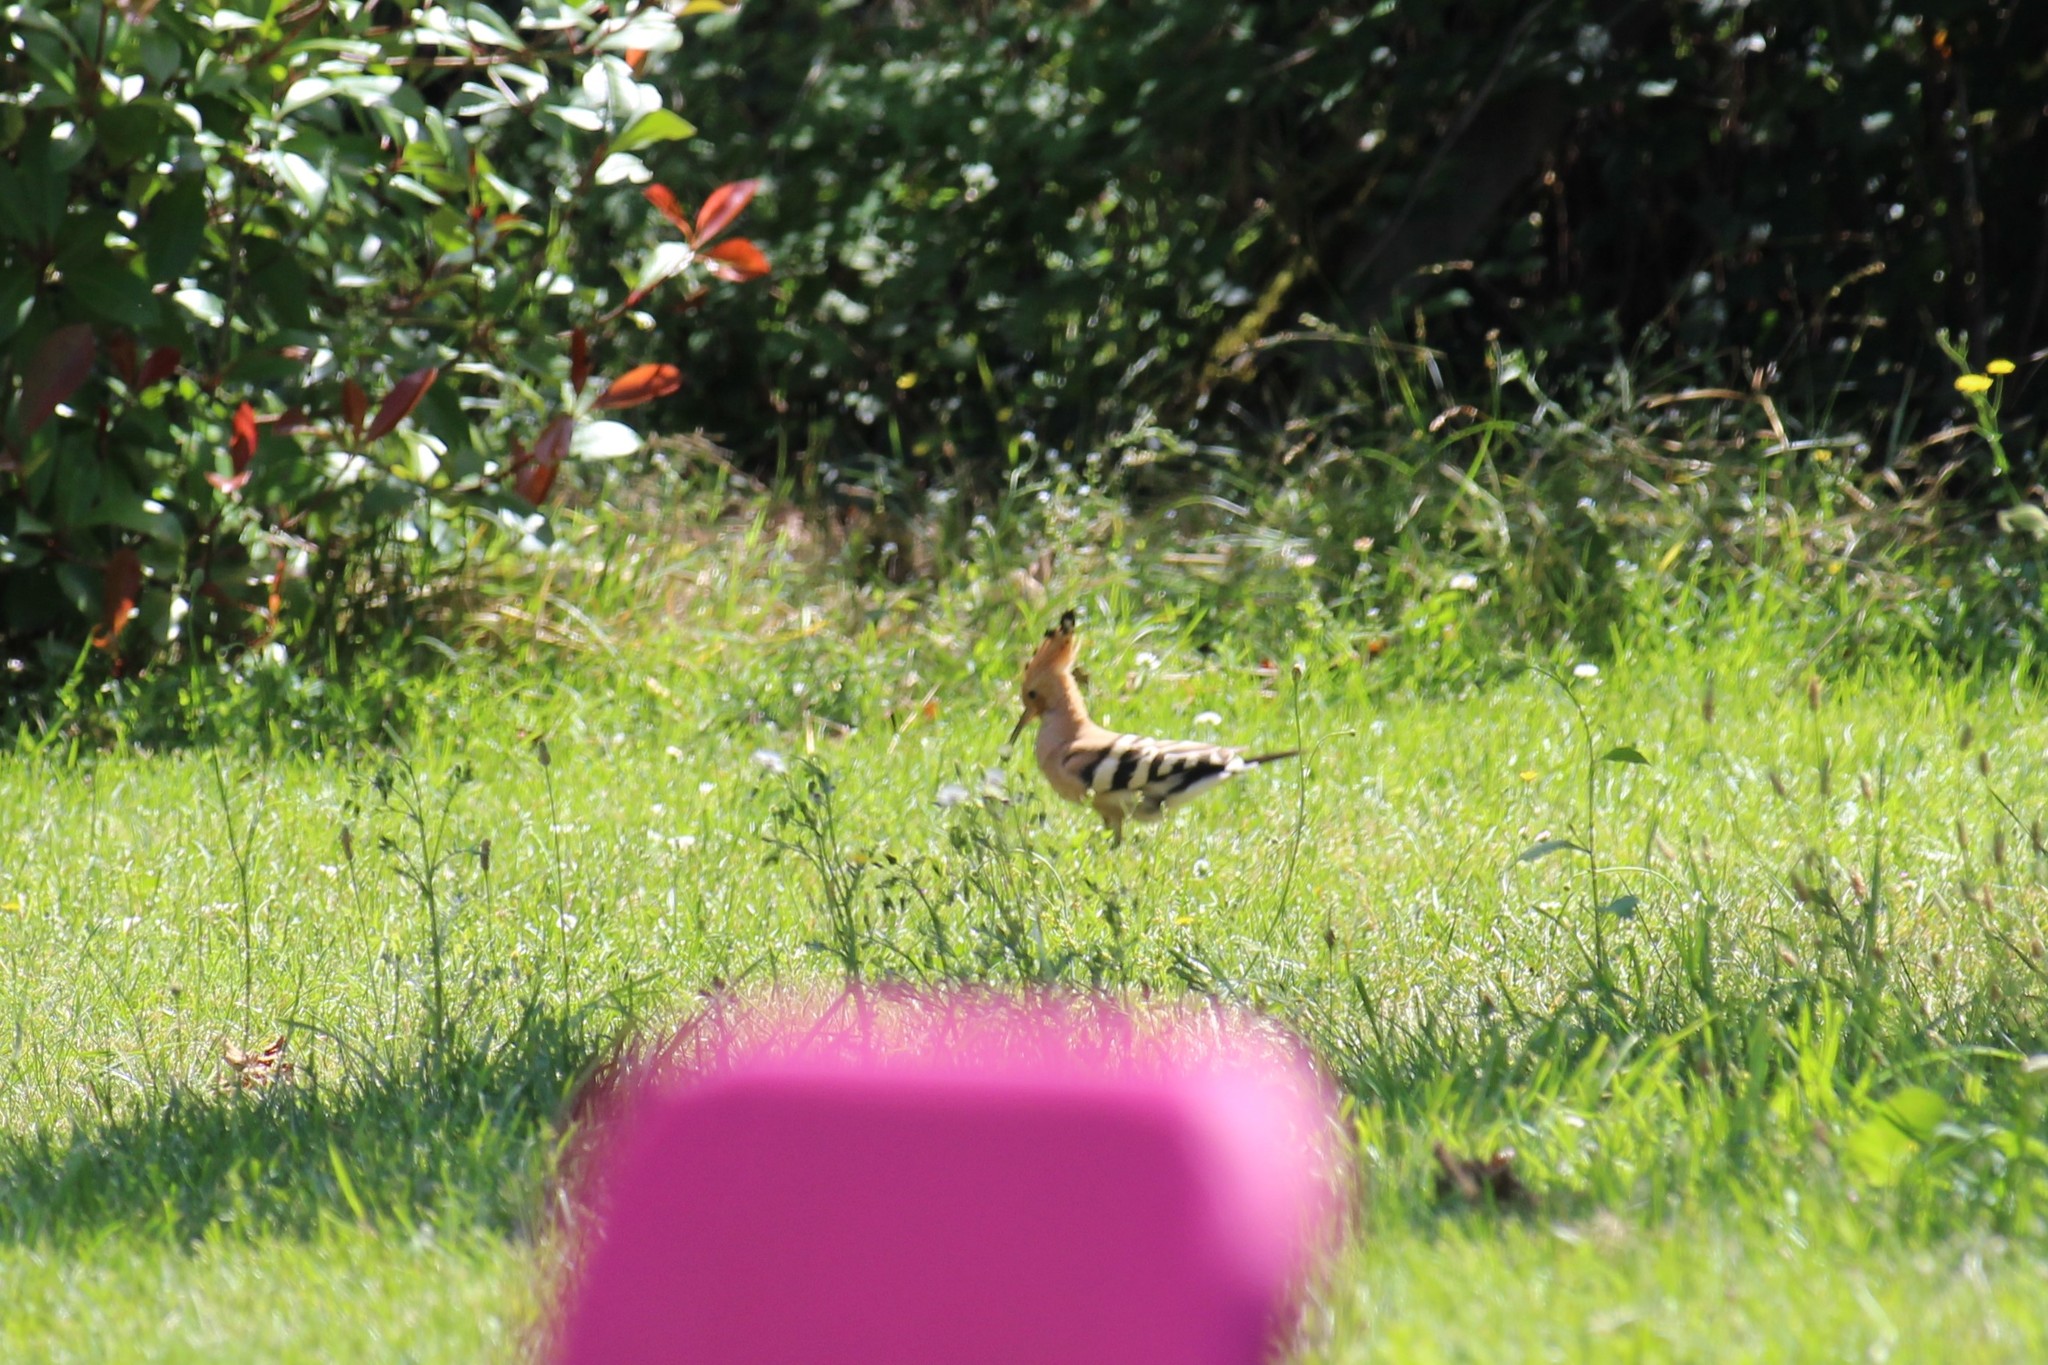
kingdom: Animalia
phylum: Chordata
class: Aves
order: Bucerotiformes
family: Upupidae
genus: Upupa
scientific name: Upupa epops
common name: Eurasian hoopoe
